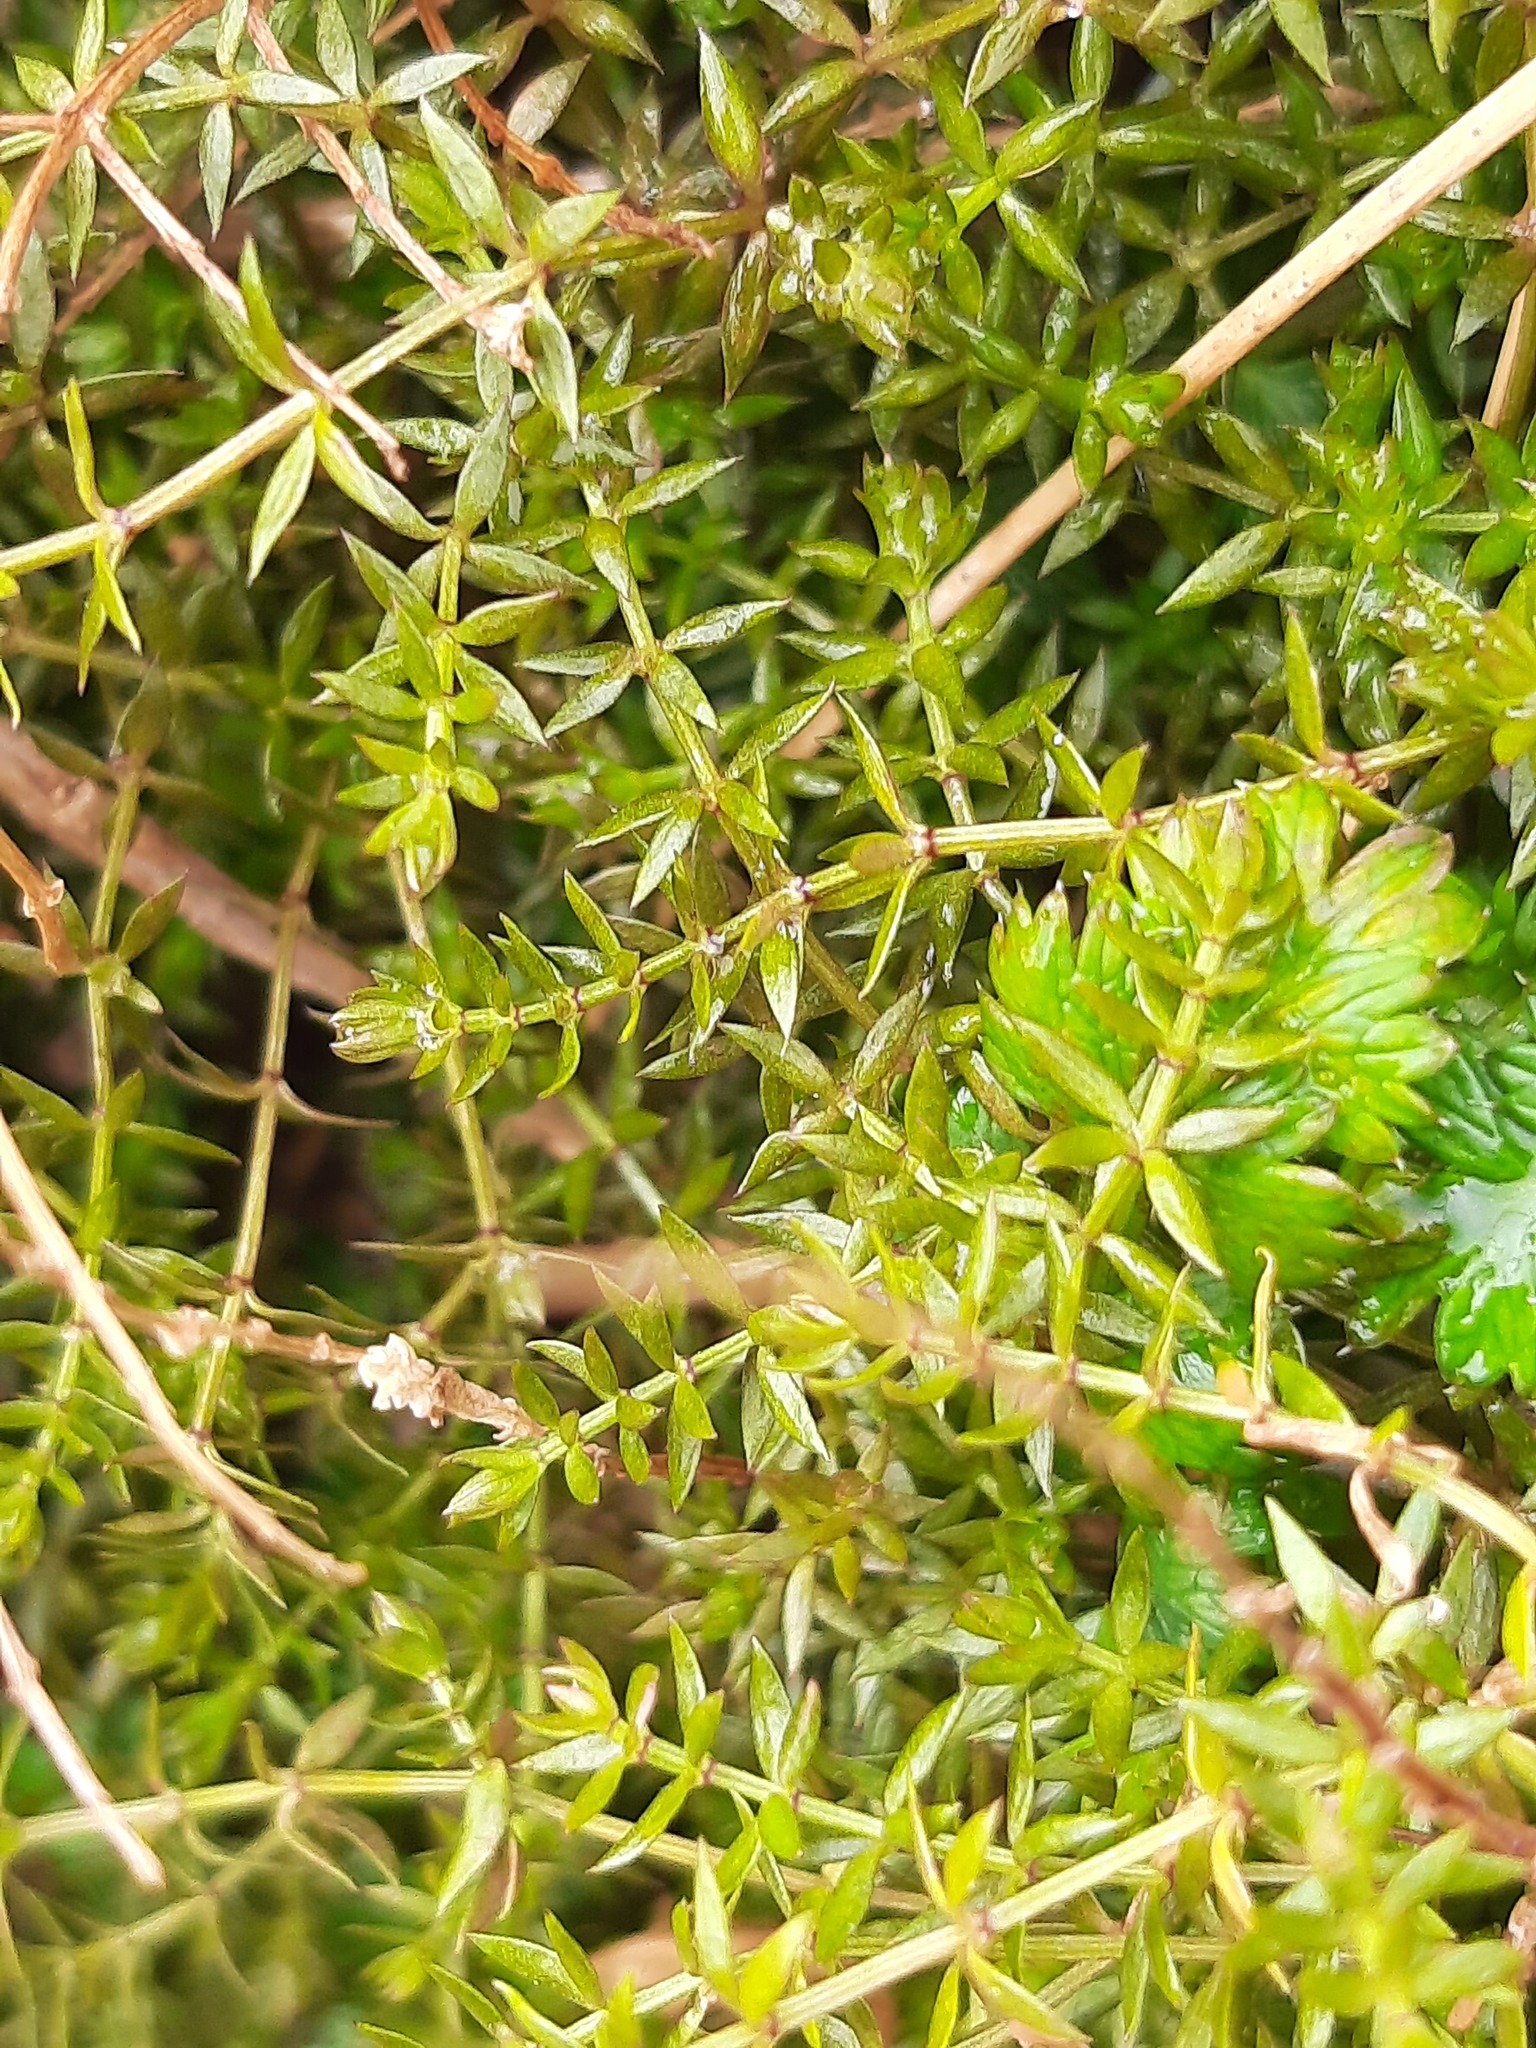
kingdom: Plantae
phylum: Tracheophyta
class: Magnoliopsida
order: Gentianales
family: Rubiaceae
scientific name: Rubiaceae
